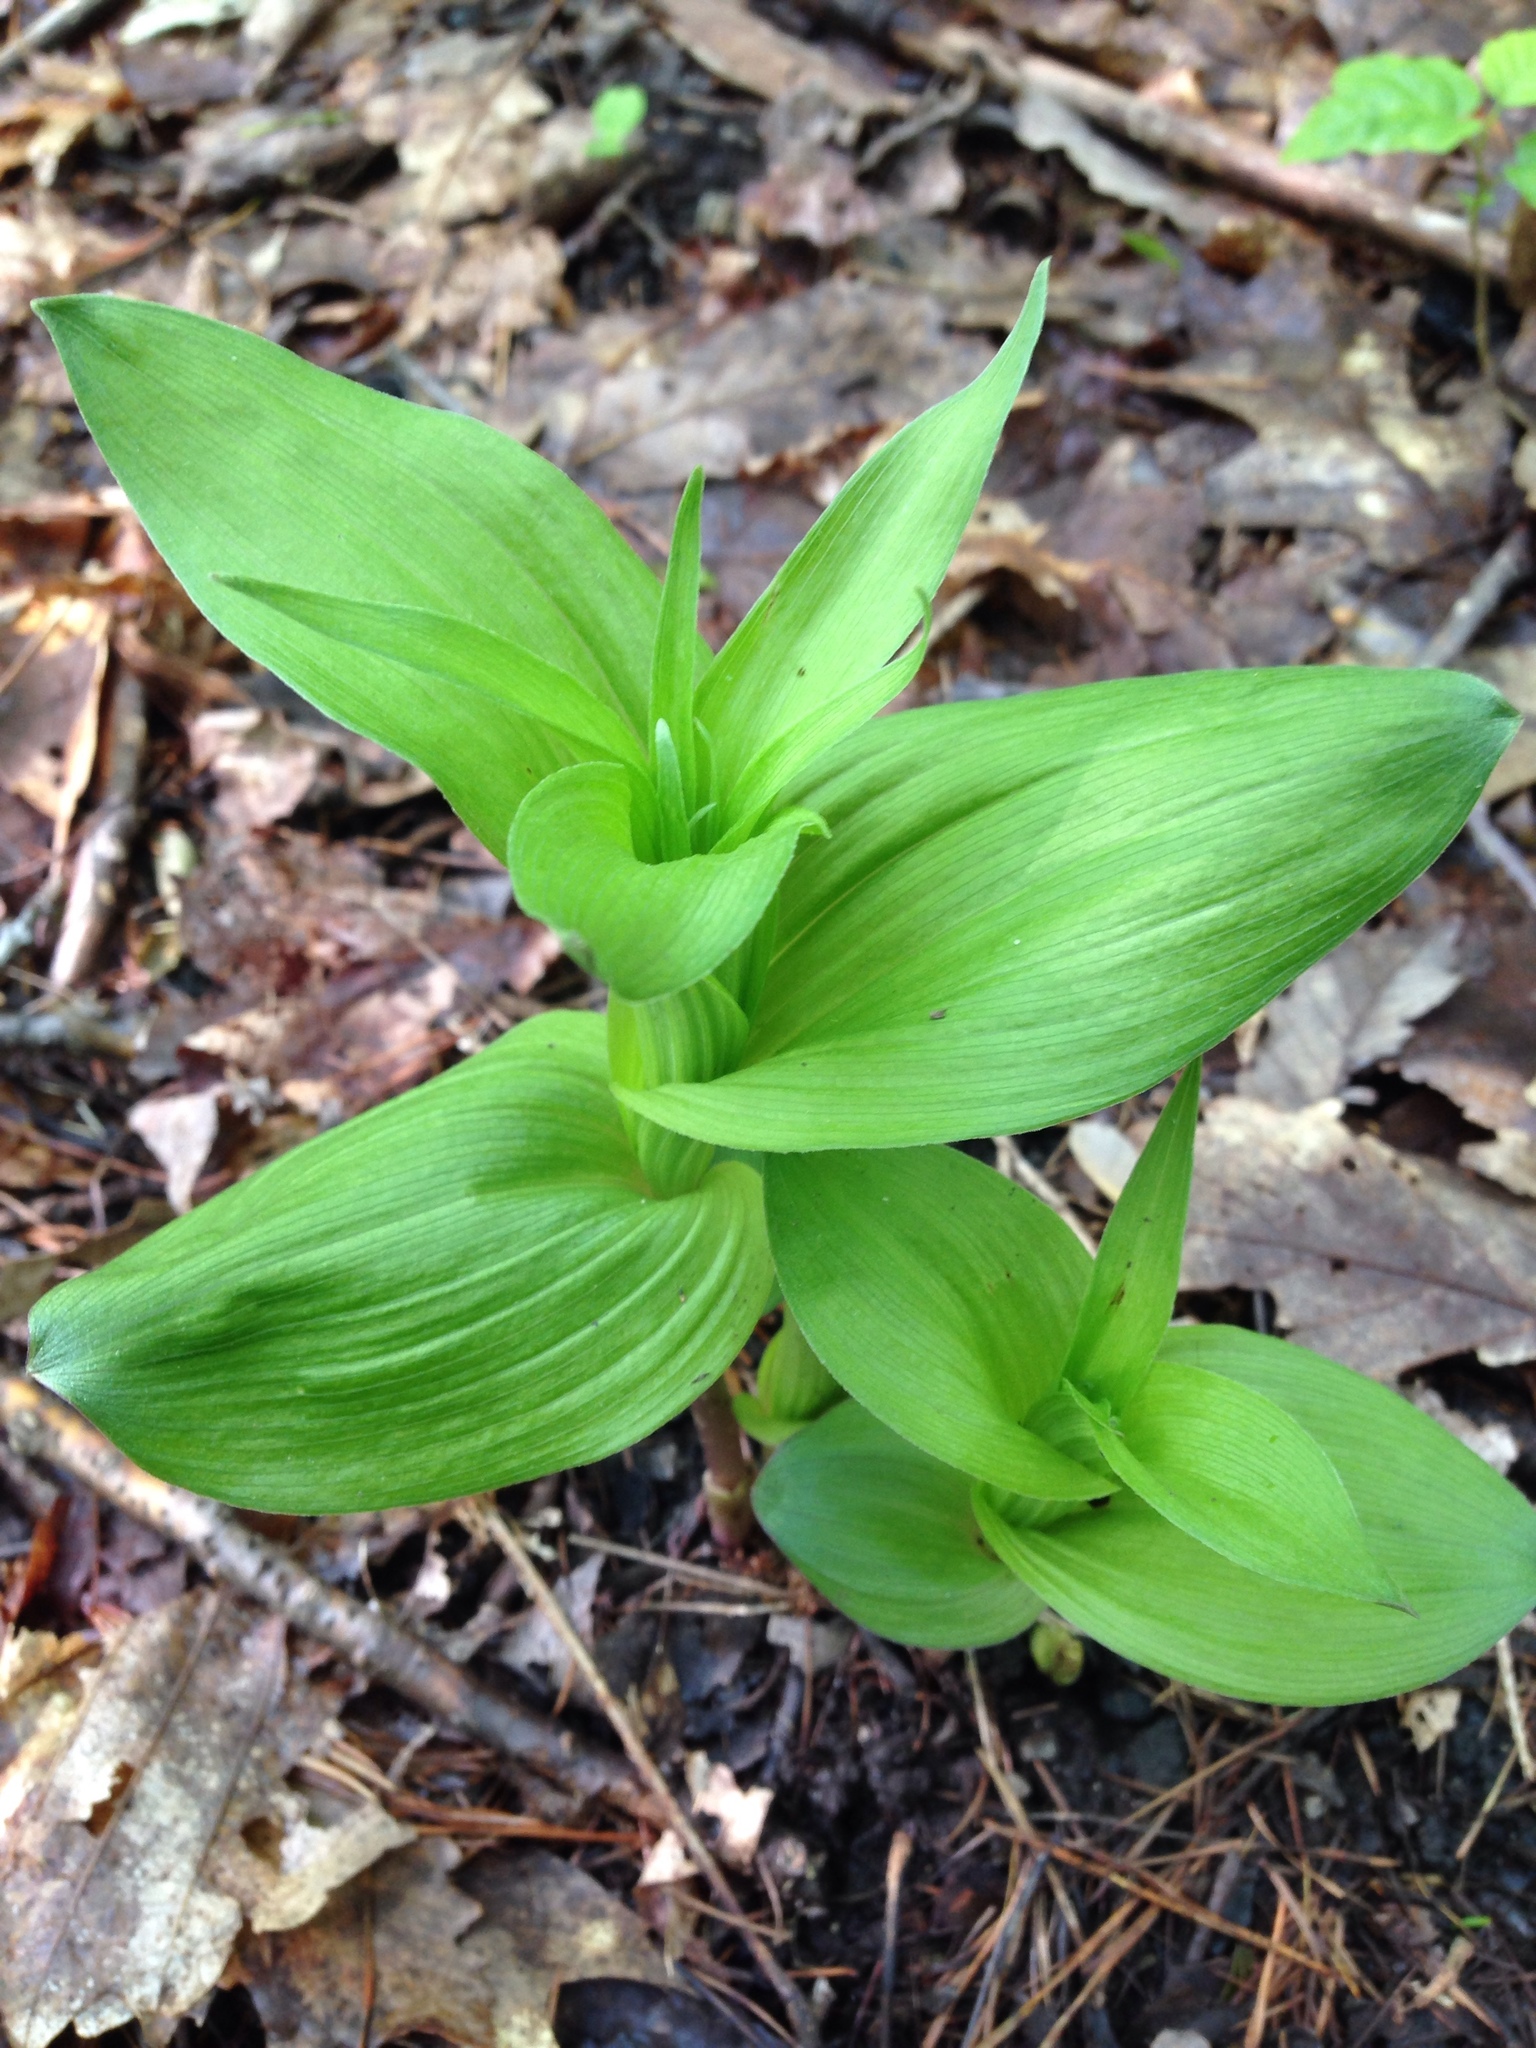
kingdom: Plantae
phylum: Tracheophyta
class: Liliopsida
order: Asparagales
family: Orchidaceae
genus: Epipactis
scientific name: Epipactis helleborine
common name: Broad-leaved helleborine
